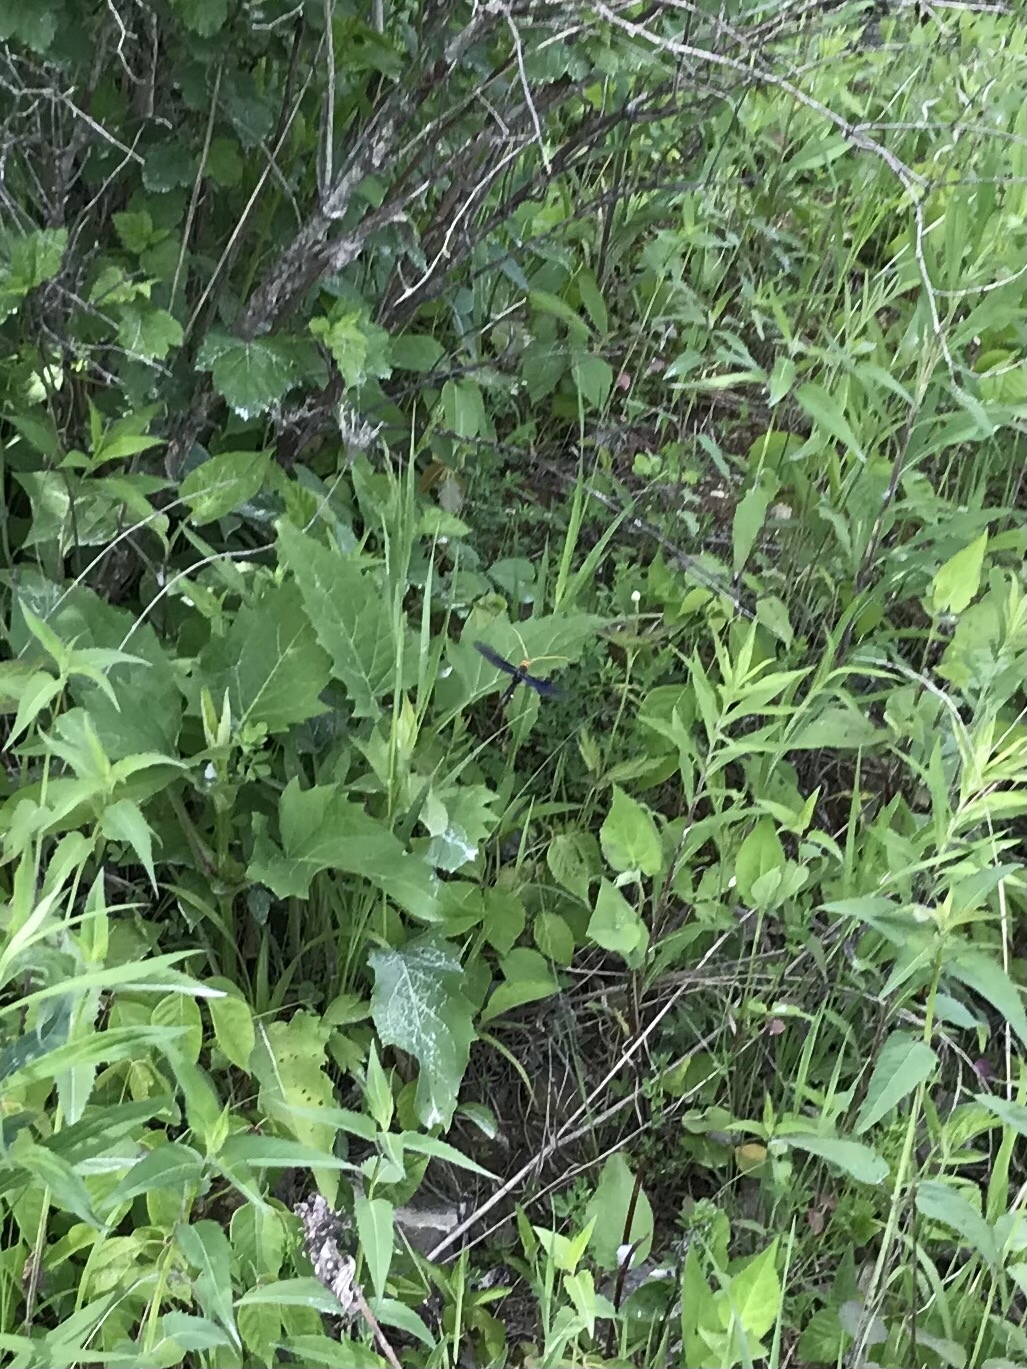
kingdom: Animalia
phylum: Arthropoda
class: Insecta
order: Hymenoptera
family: Ichneumonidae
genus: Megarhyssa
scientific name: Megarhyssa atrata
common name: Black giant ichneumonid wasp
